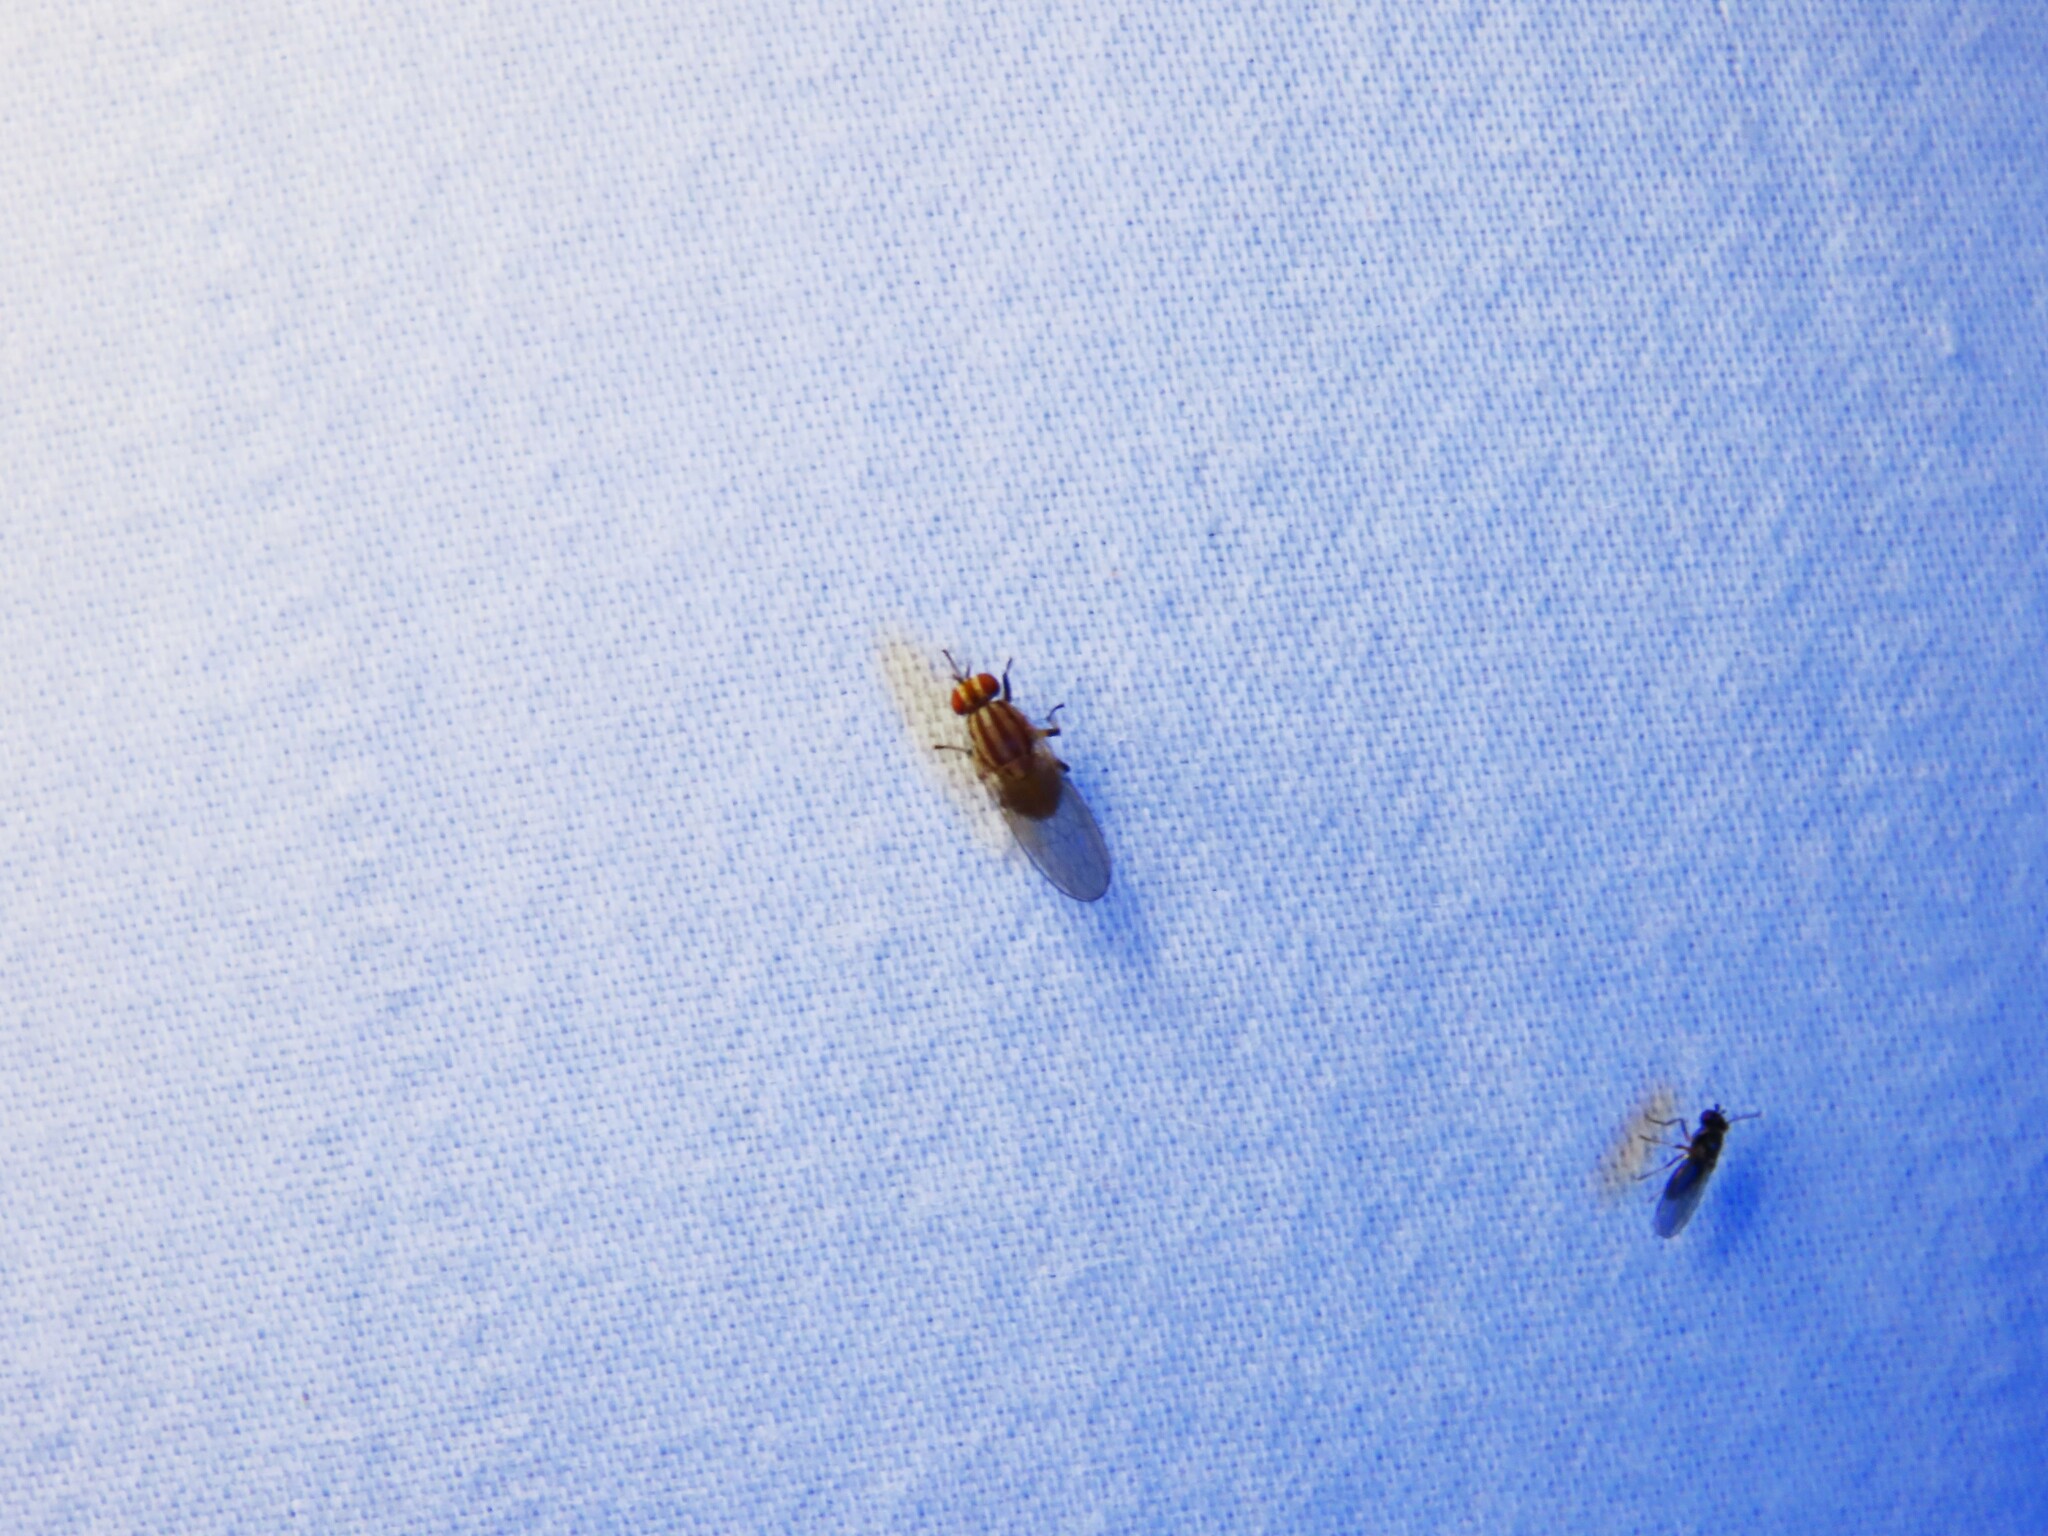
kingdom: Animalia
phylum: Arthropoda
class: Insecta
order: Diptera
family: Lauxaniidae
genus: Sapromyza
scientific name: Sapromyza brunneovittata
